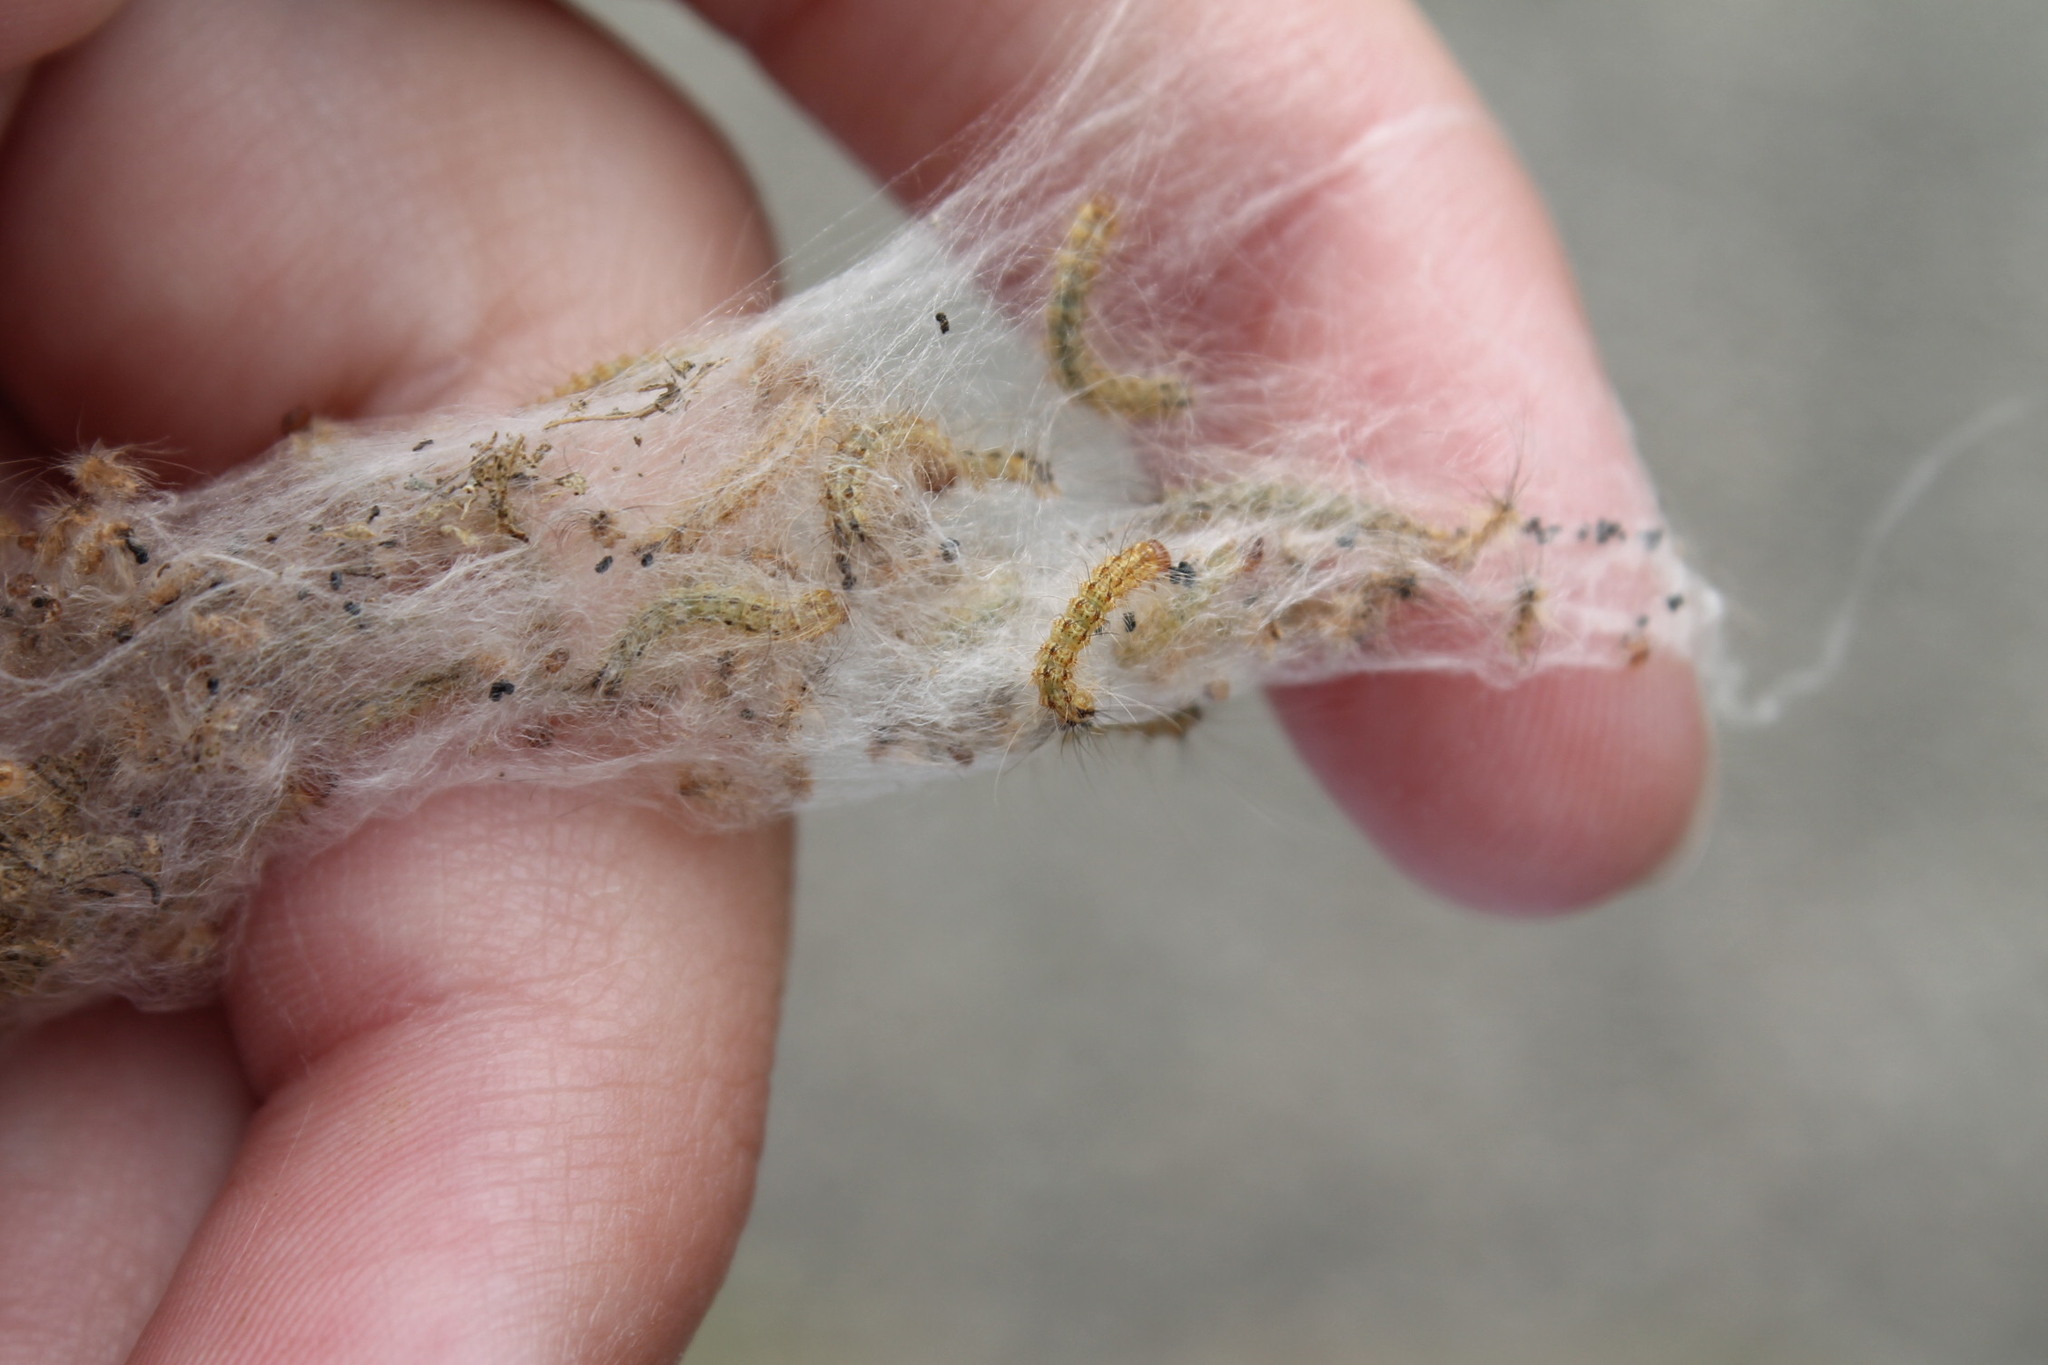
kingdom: Animalia
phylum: Arthropoda
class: Insecta
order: Lepidoptera
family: Erebidae
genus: Hyphantria
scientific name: Hyphantria cunea
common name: American white moth
